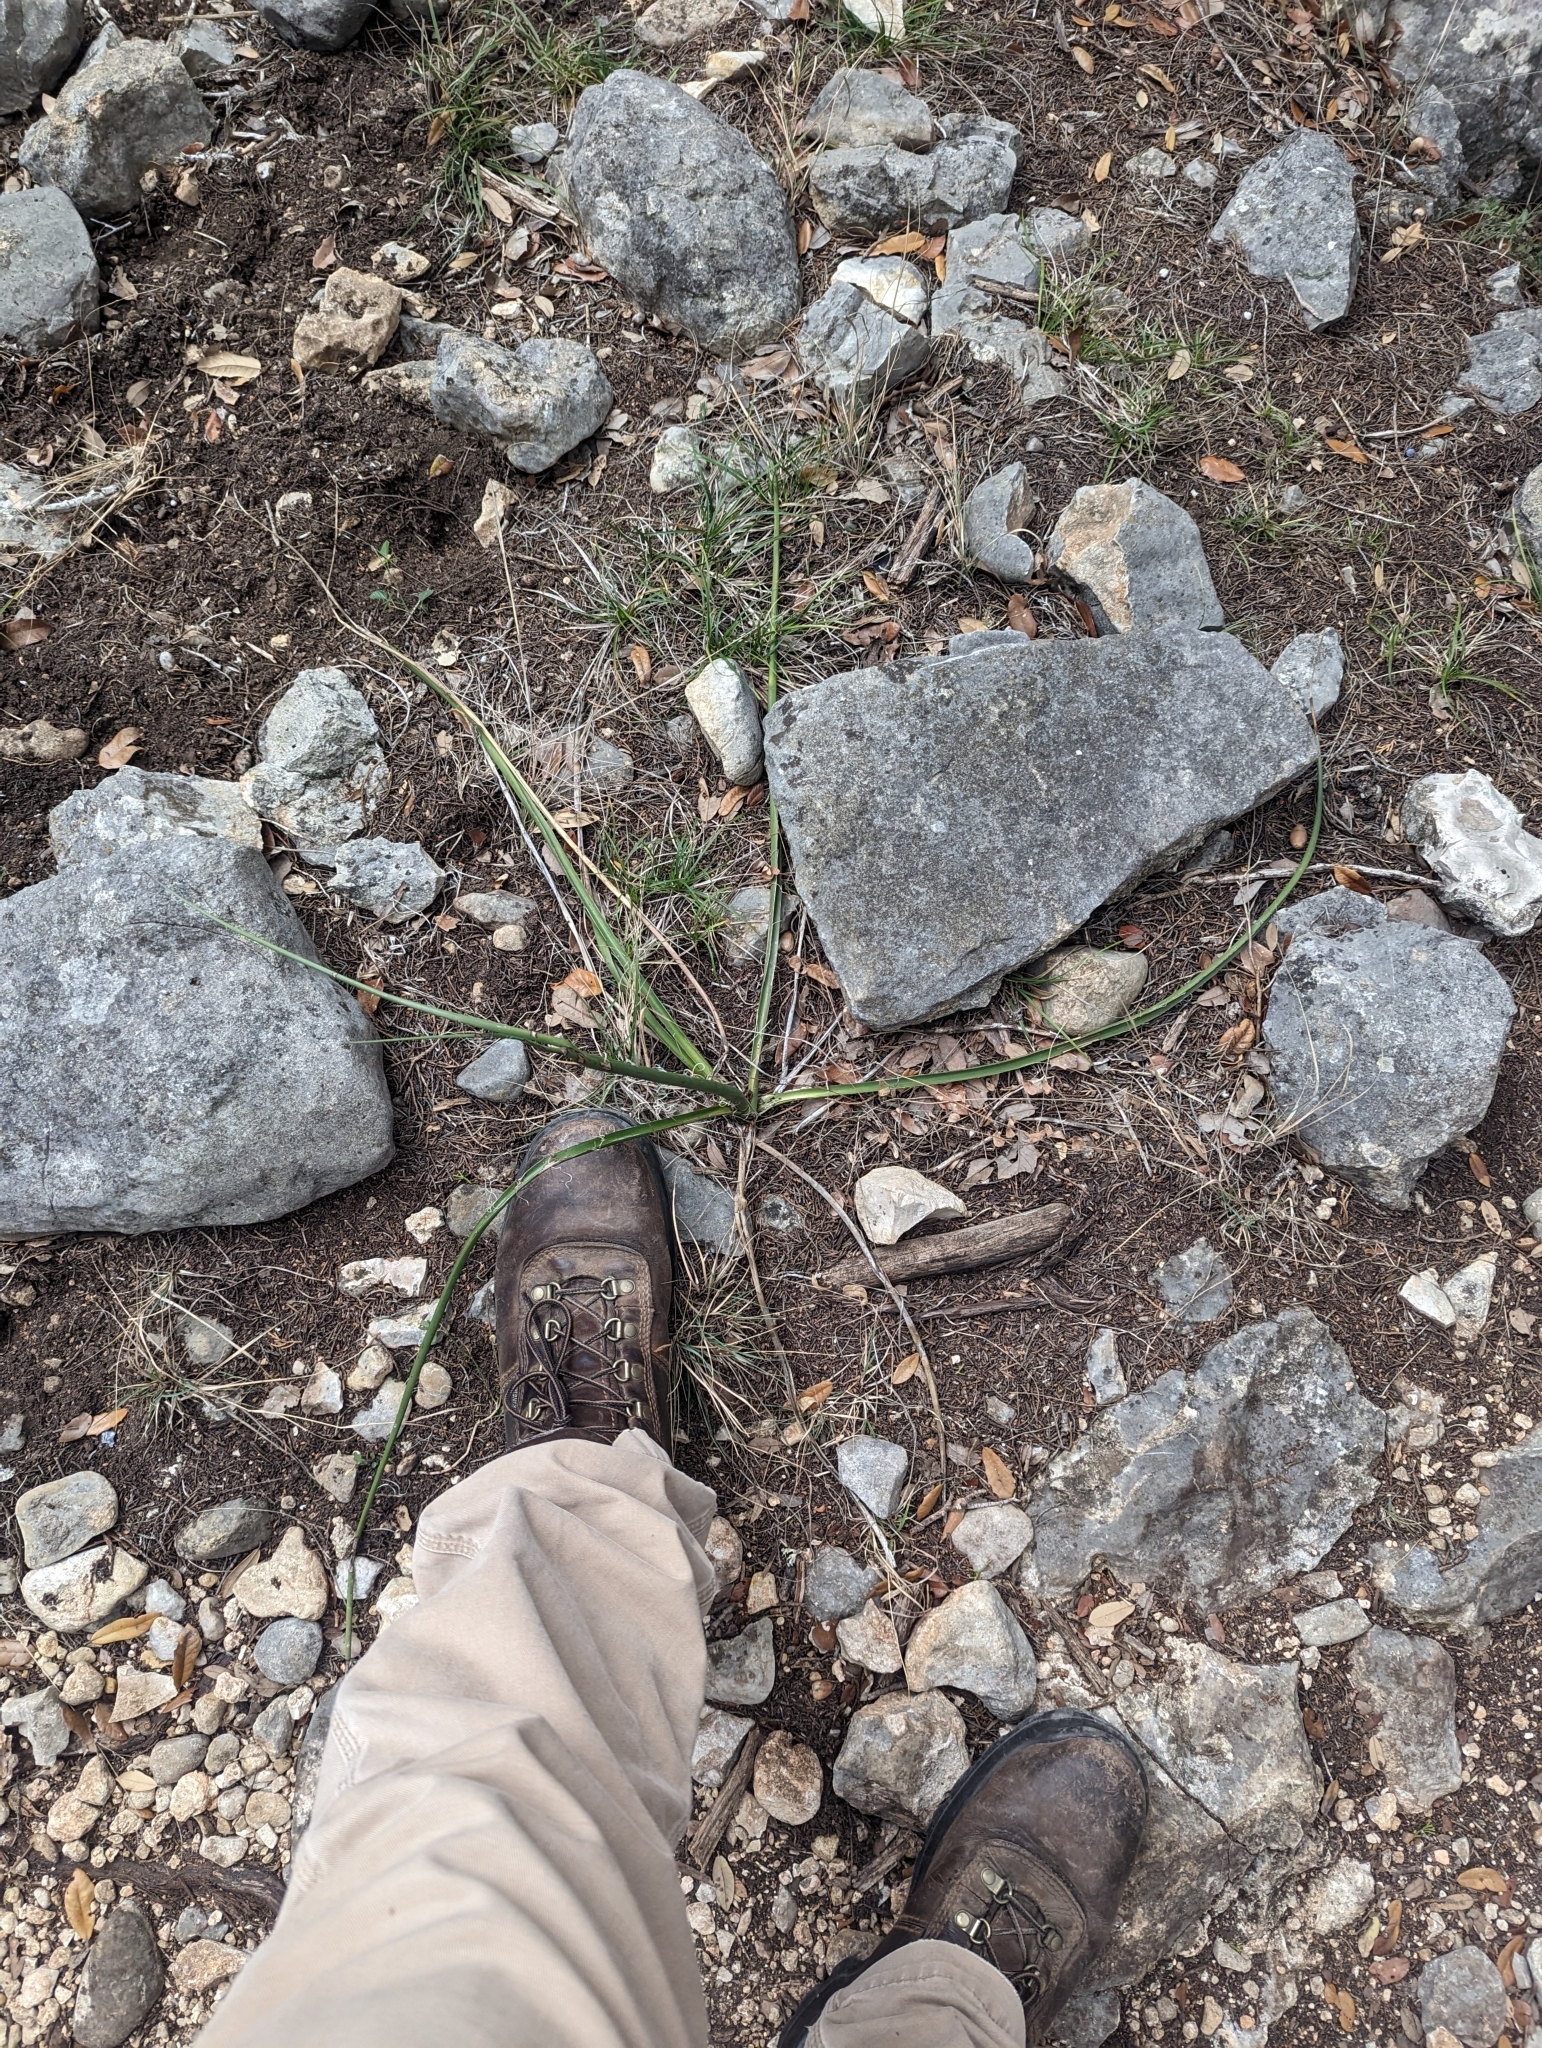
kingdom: Plantae
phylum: Tracheophyta
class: Liliopsida
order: Asparagales
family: Asparagaceae
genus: Hesperaloe
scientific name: Hesperaloe parviflora
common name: Red hesperaloe
